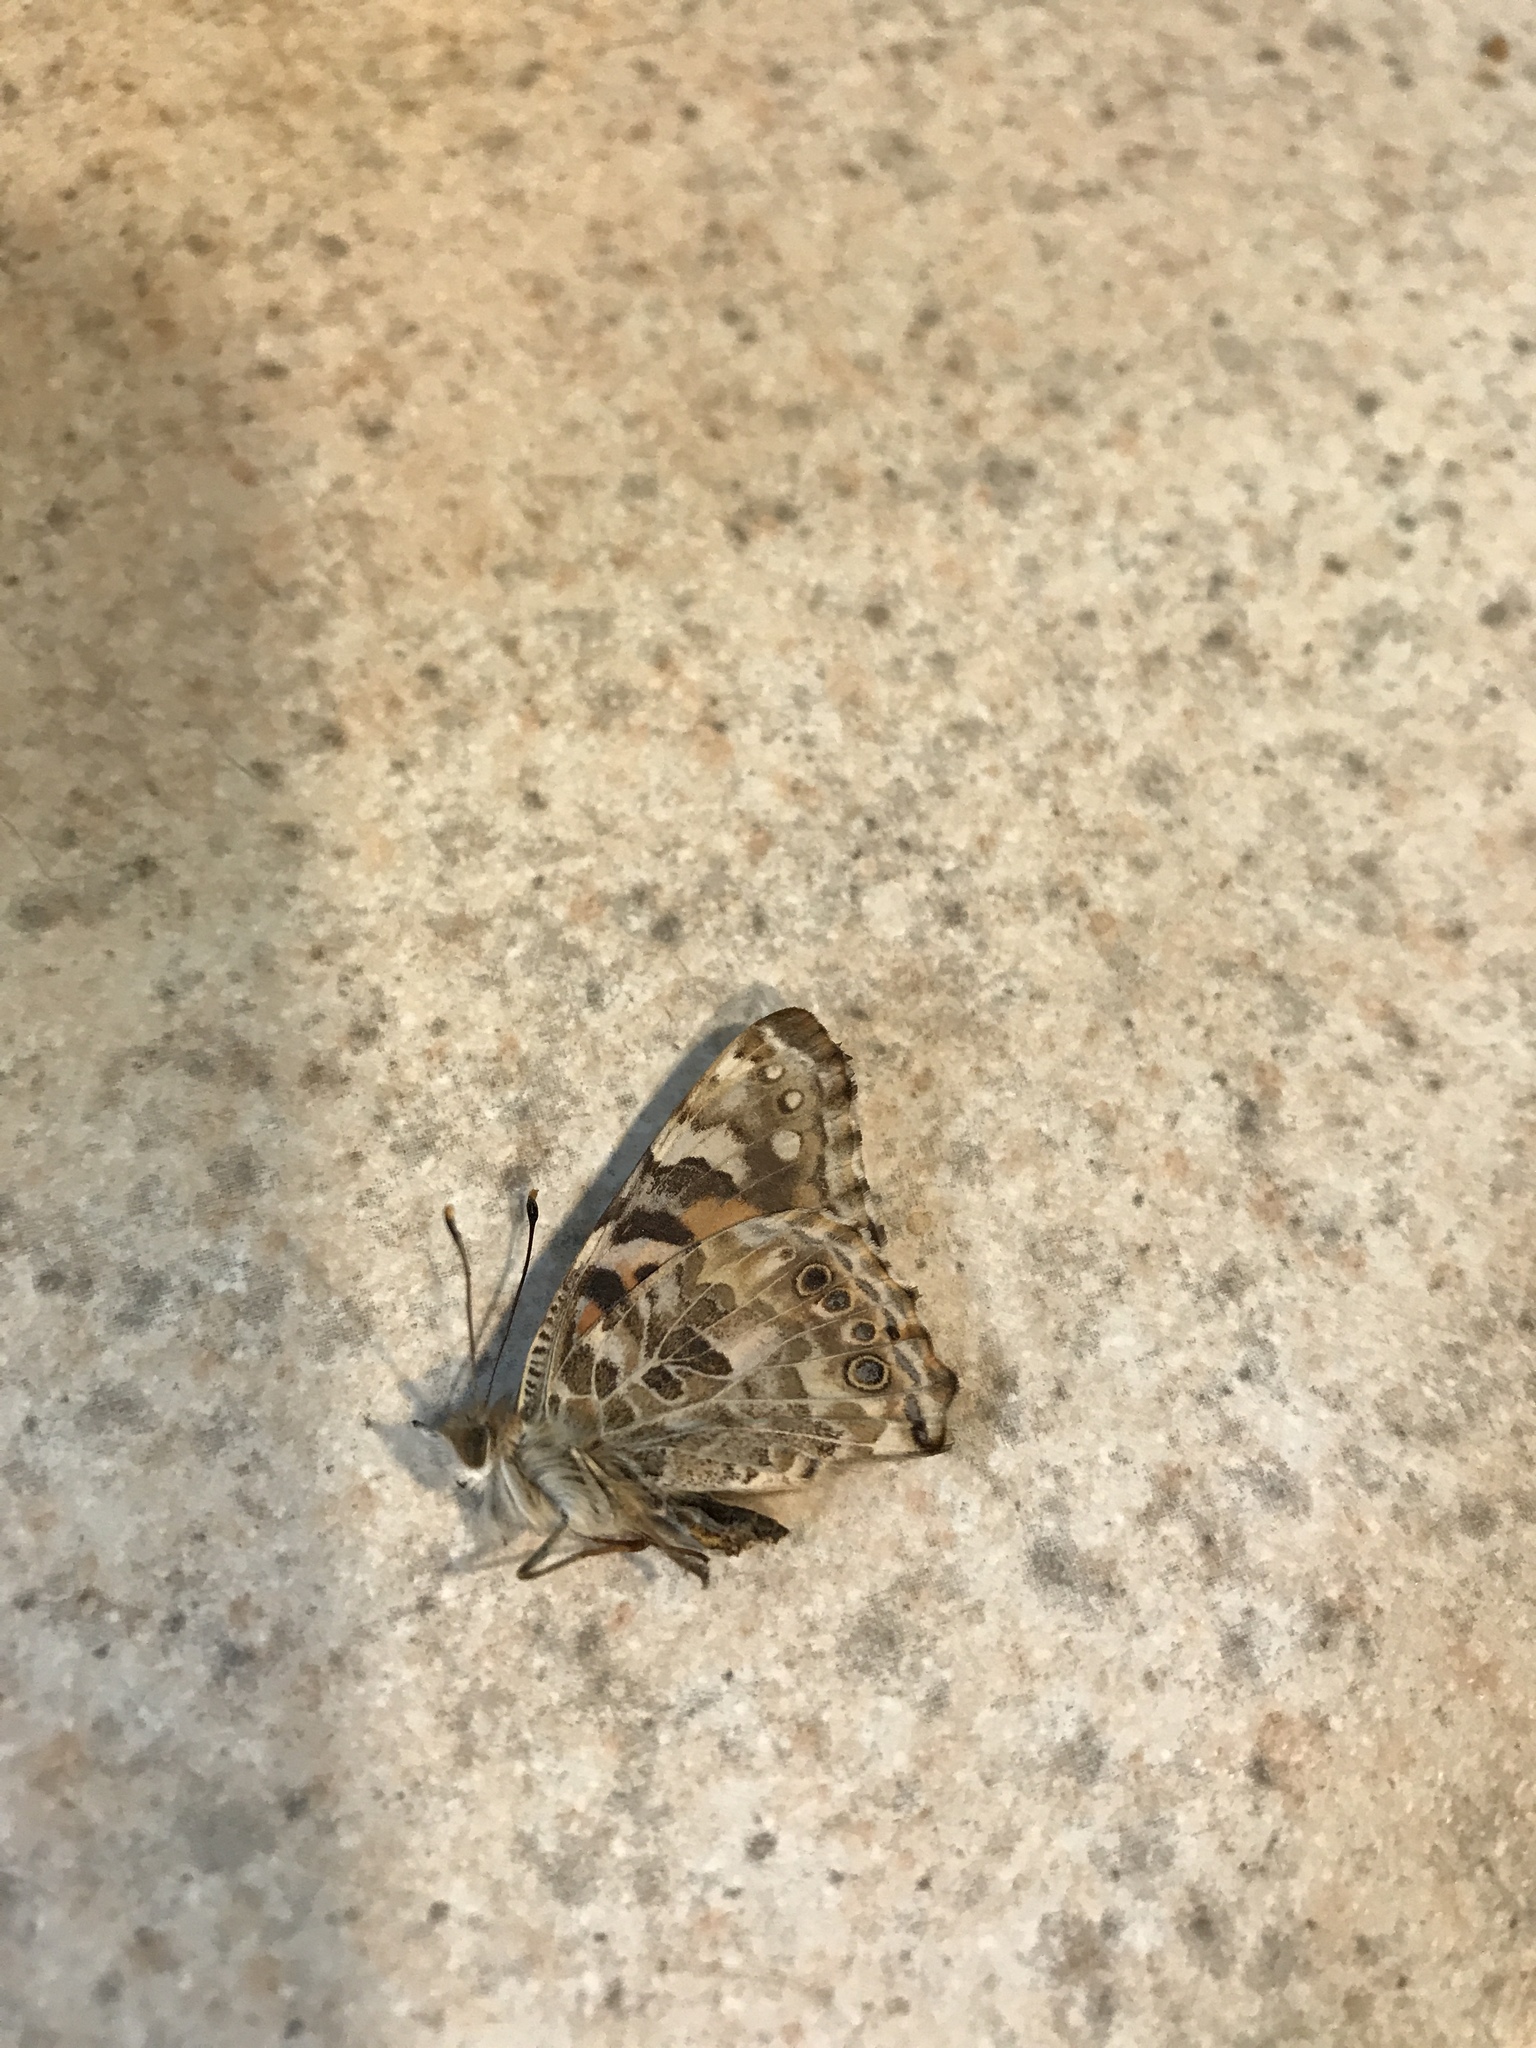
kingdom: Animalia
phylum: Arthropoda
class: Insecta
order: Lepidoptera
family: Nymphalidae
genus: Vanessa
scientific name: Vanessa cardui
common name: Painted lady
